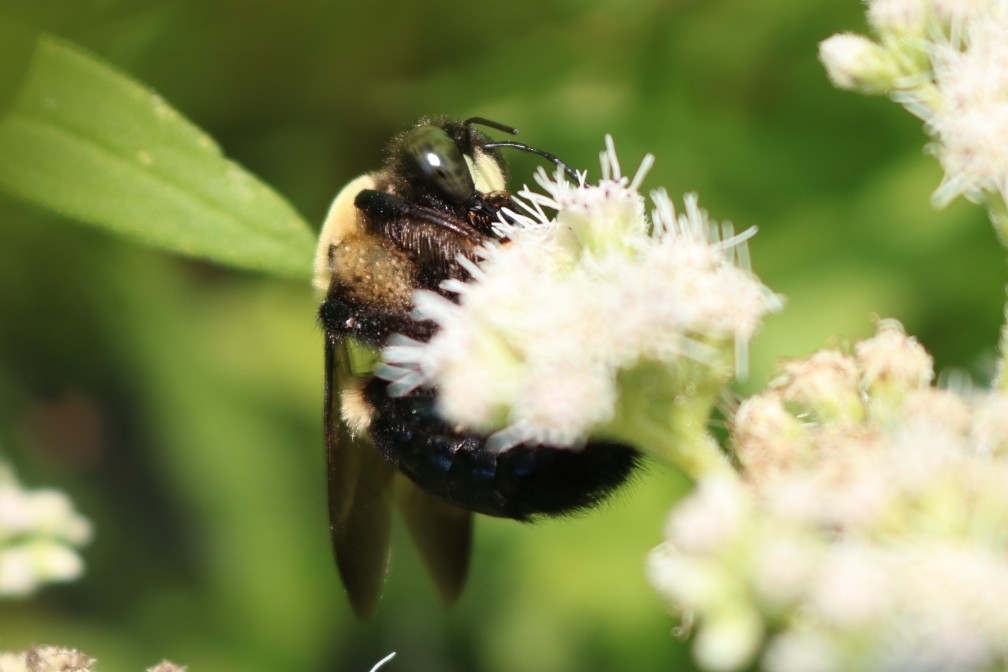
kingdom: Animalia
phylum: Arthropoda
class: Insecta
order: Hymenoptera
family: Apidae
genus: Xylocopa
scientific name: Xylocopa virginica
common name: Carpenter bee
